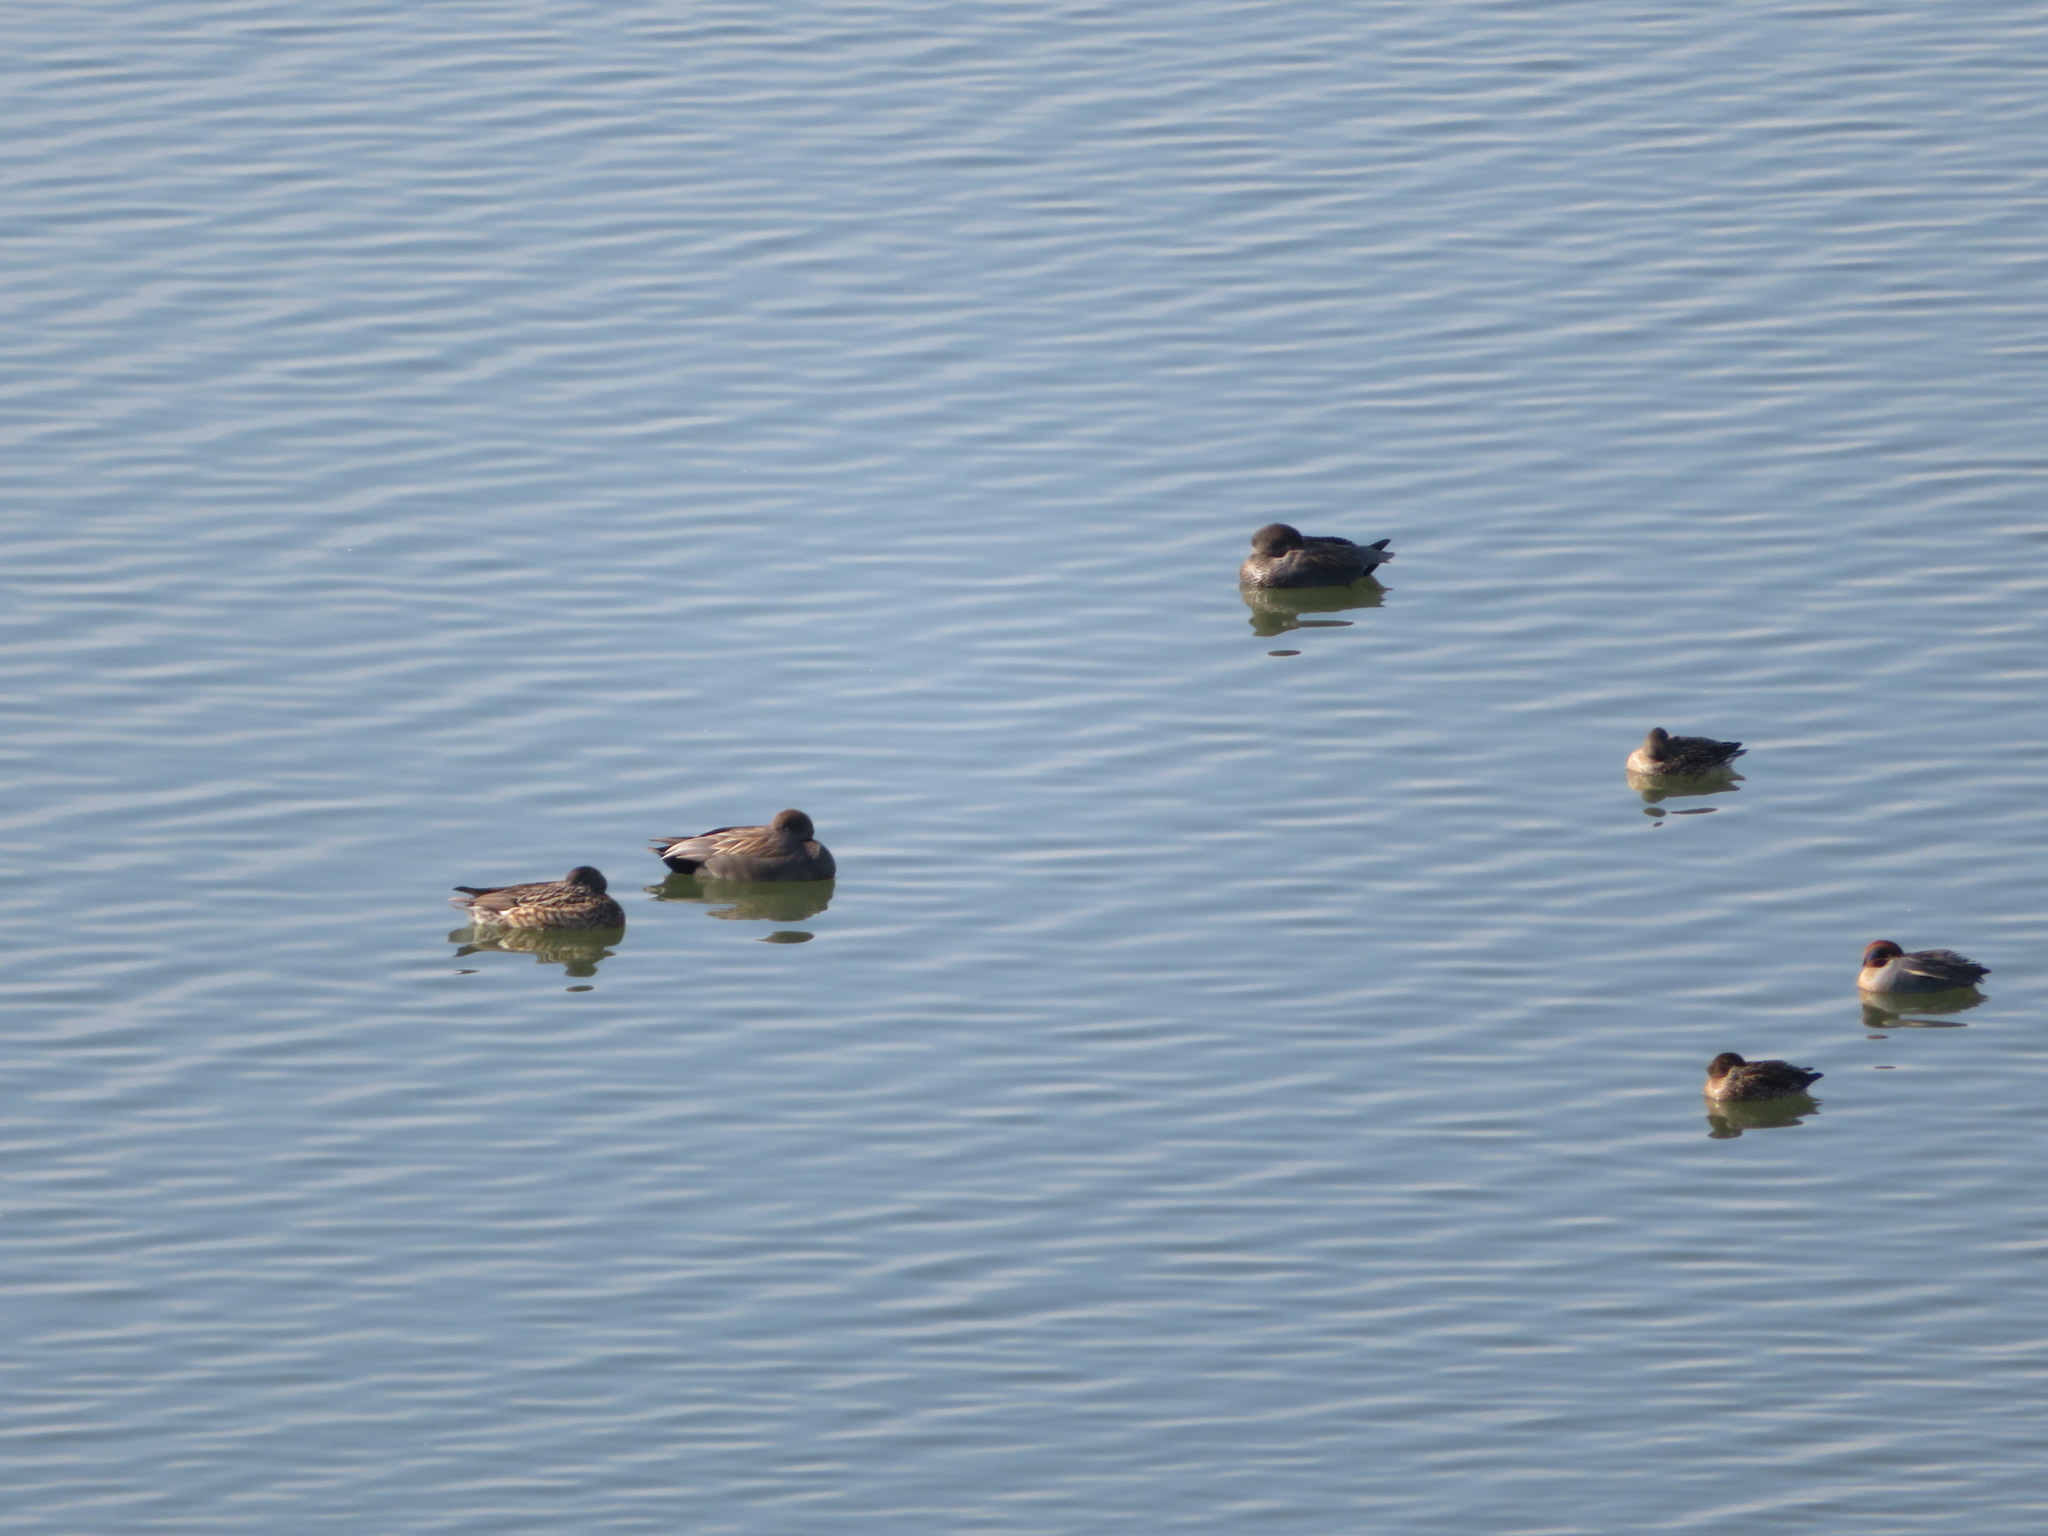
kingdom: Animalia
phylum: Chordata
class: Aves
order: Anseriformes
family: Anatidae
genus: Mareca
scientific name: Mareca strepera
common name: Gadwall
